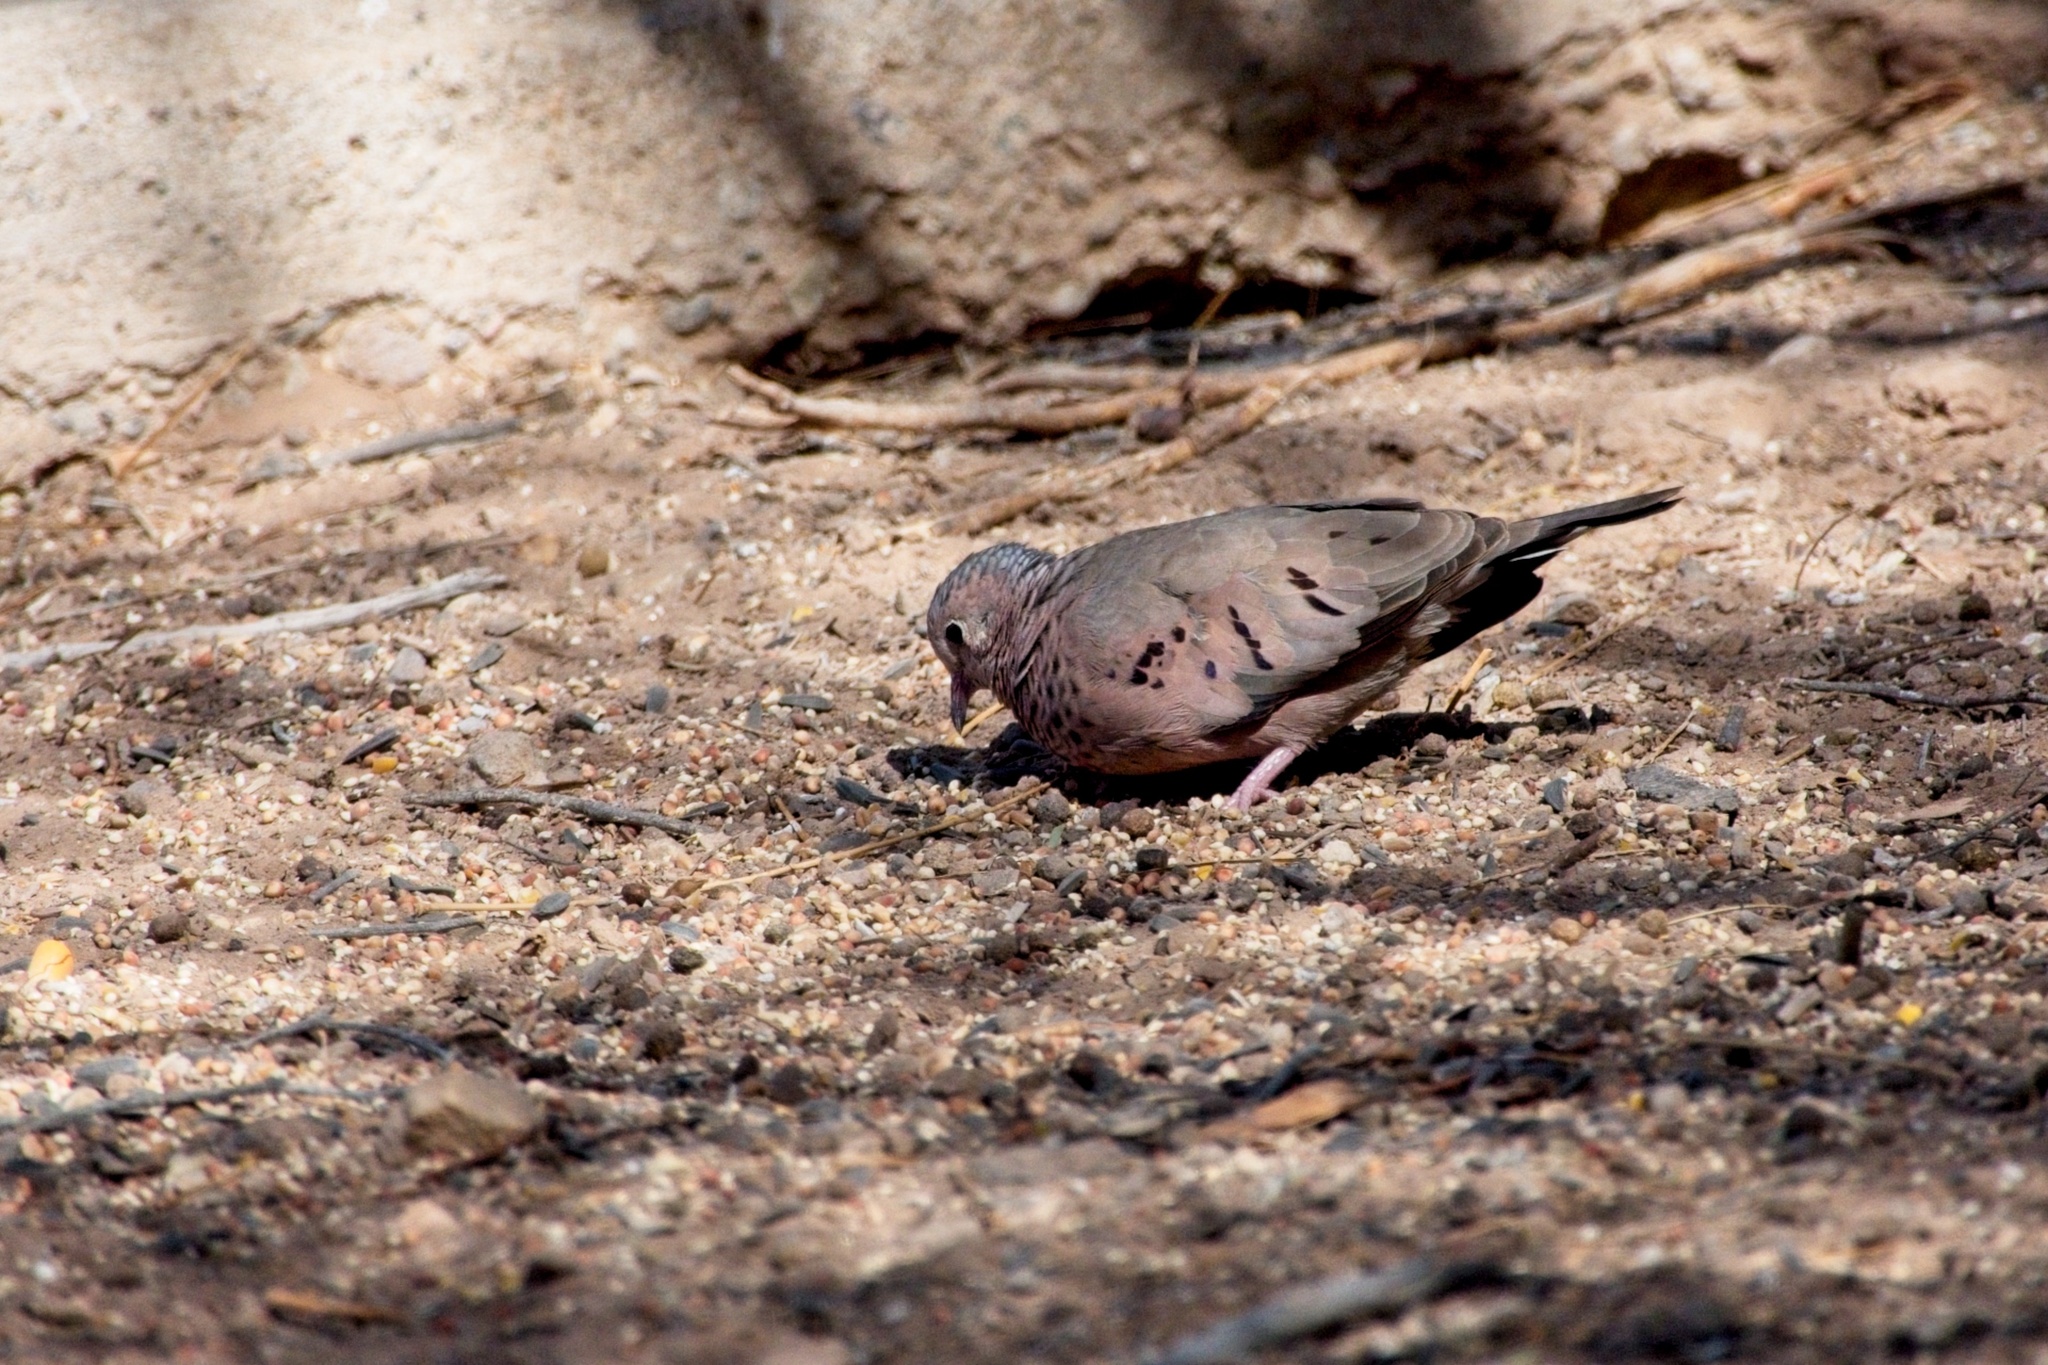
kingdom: Animalia
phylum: Chordata
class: Aves
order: Columbiformes
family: Columbidae
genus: Columbina
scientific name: Columbina passerina
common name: Common ground-dove
